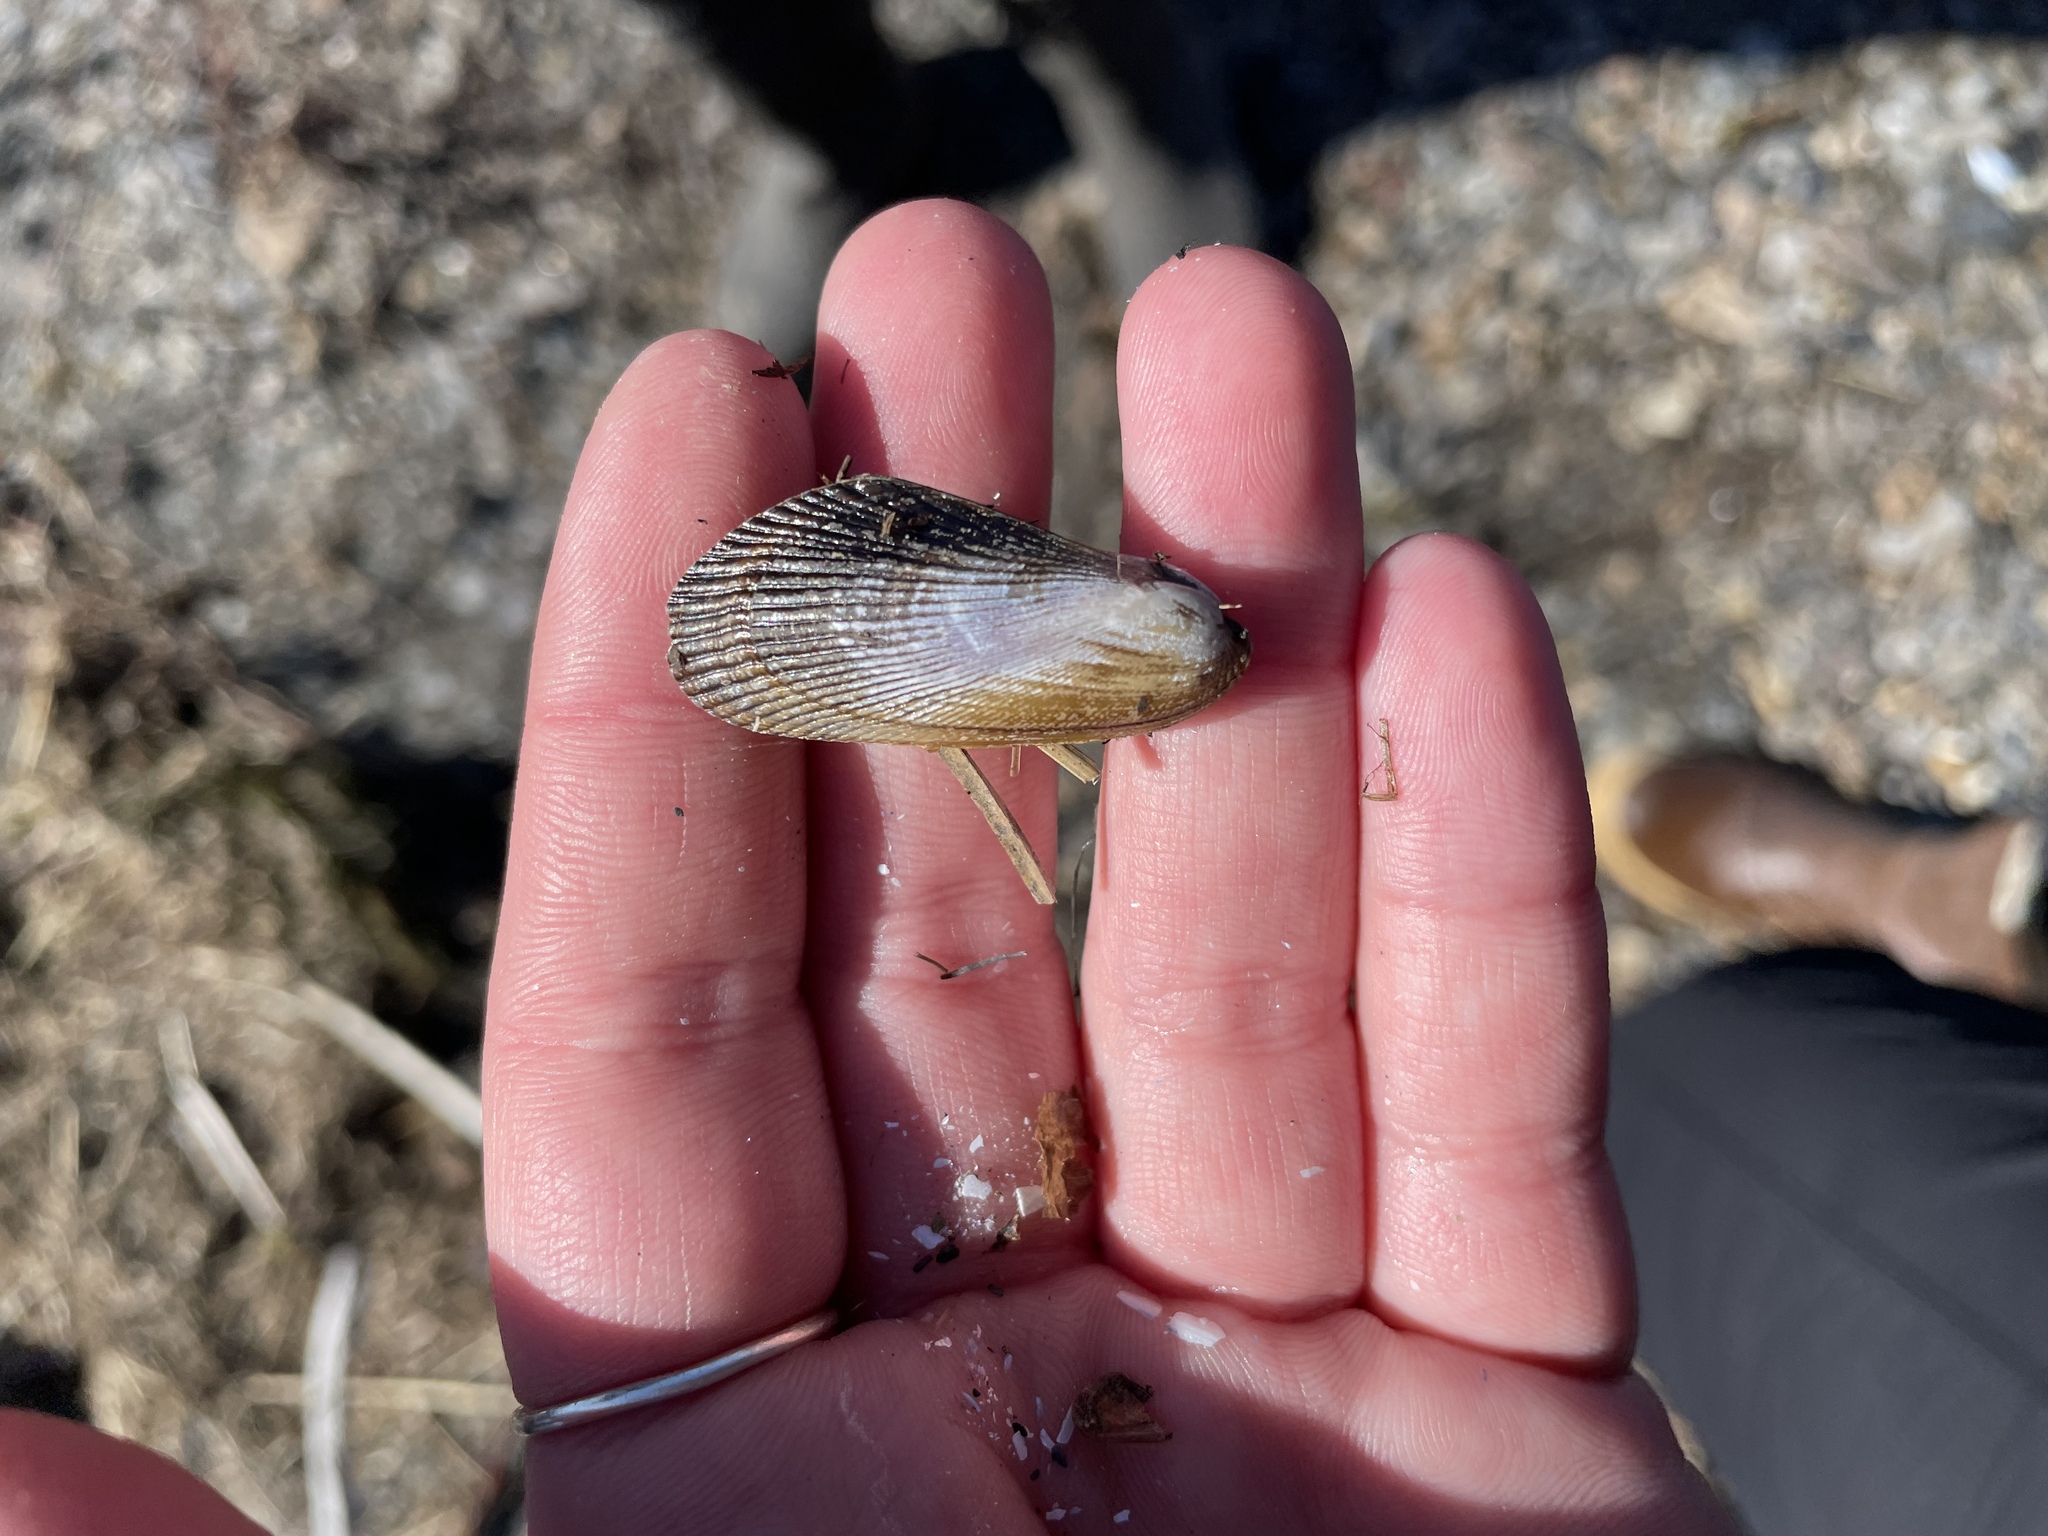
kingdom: Animalia
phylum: Mollusca
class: Bivalvia
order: Mytilida
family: Mytilidae
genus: Geukensia
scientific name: Geukensia demissa
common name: Ribbed mussel
